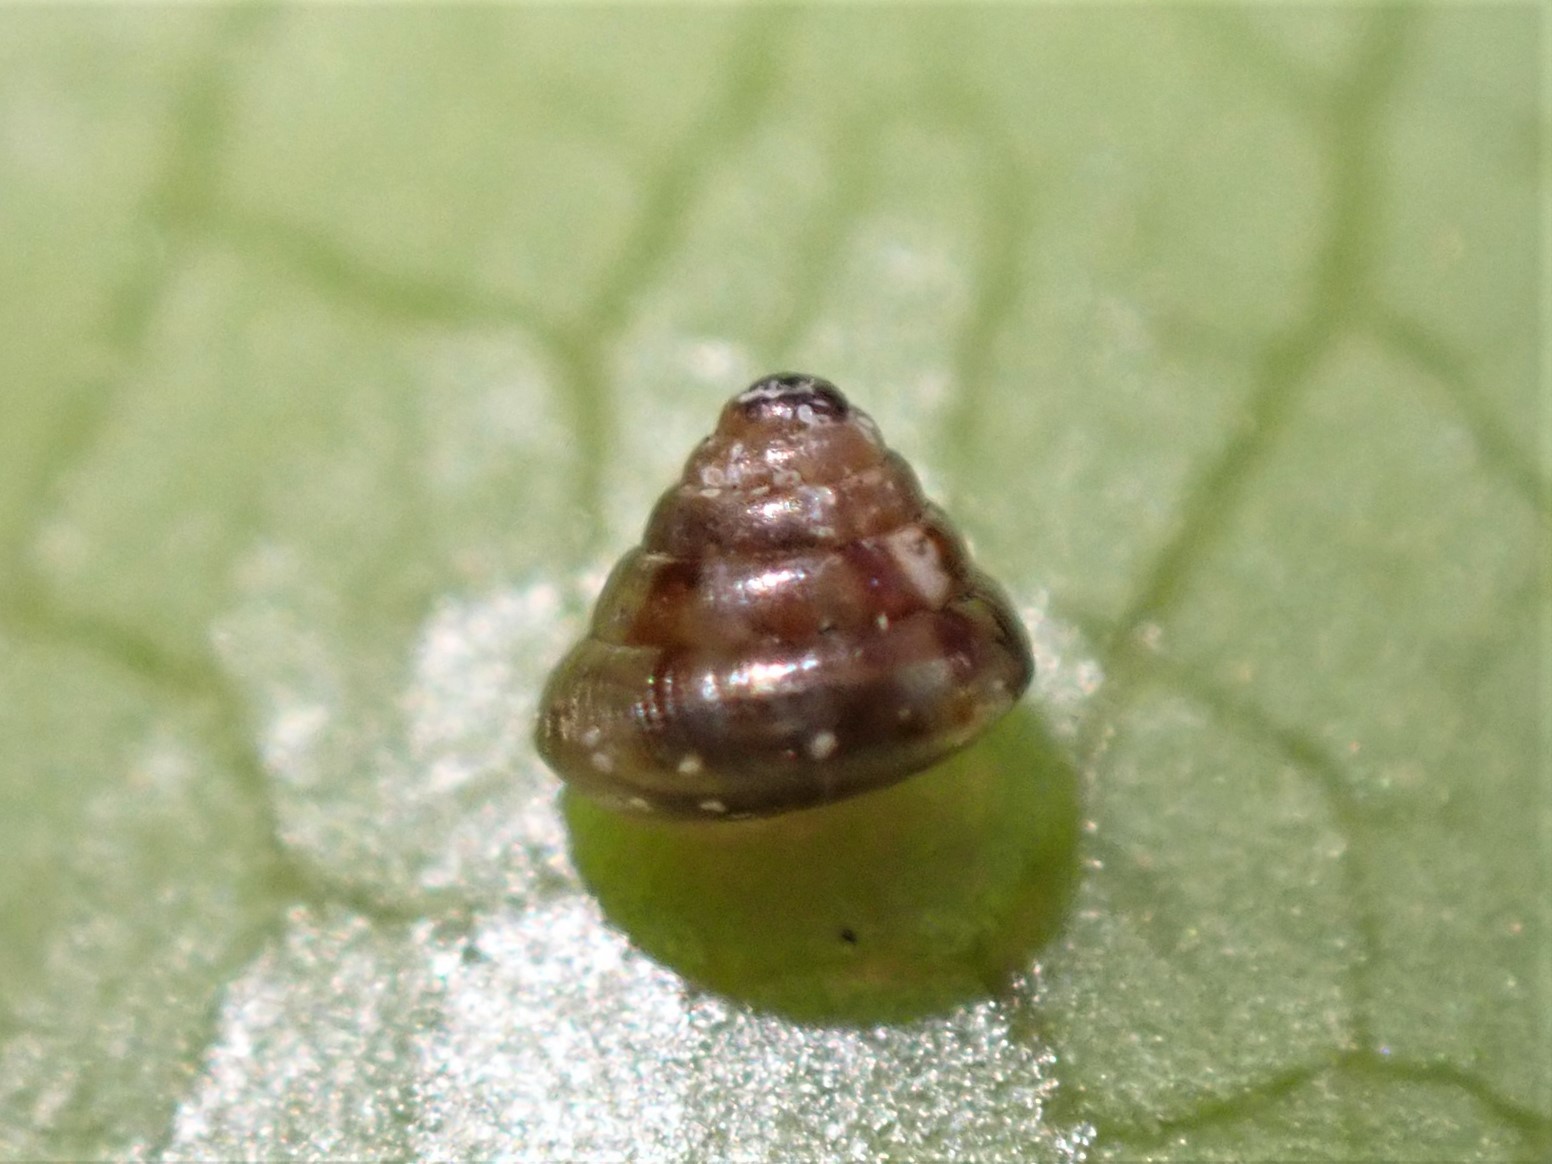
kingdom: Animalia
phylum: Mollusca
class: Gastropoda
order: Stylommatophora
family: Punctidae
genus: Phrixgnathus
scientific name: Phrixgnathus erigone
